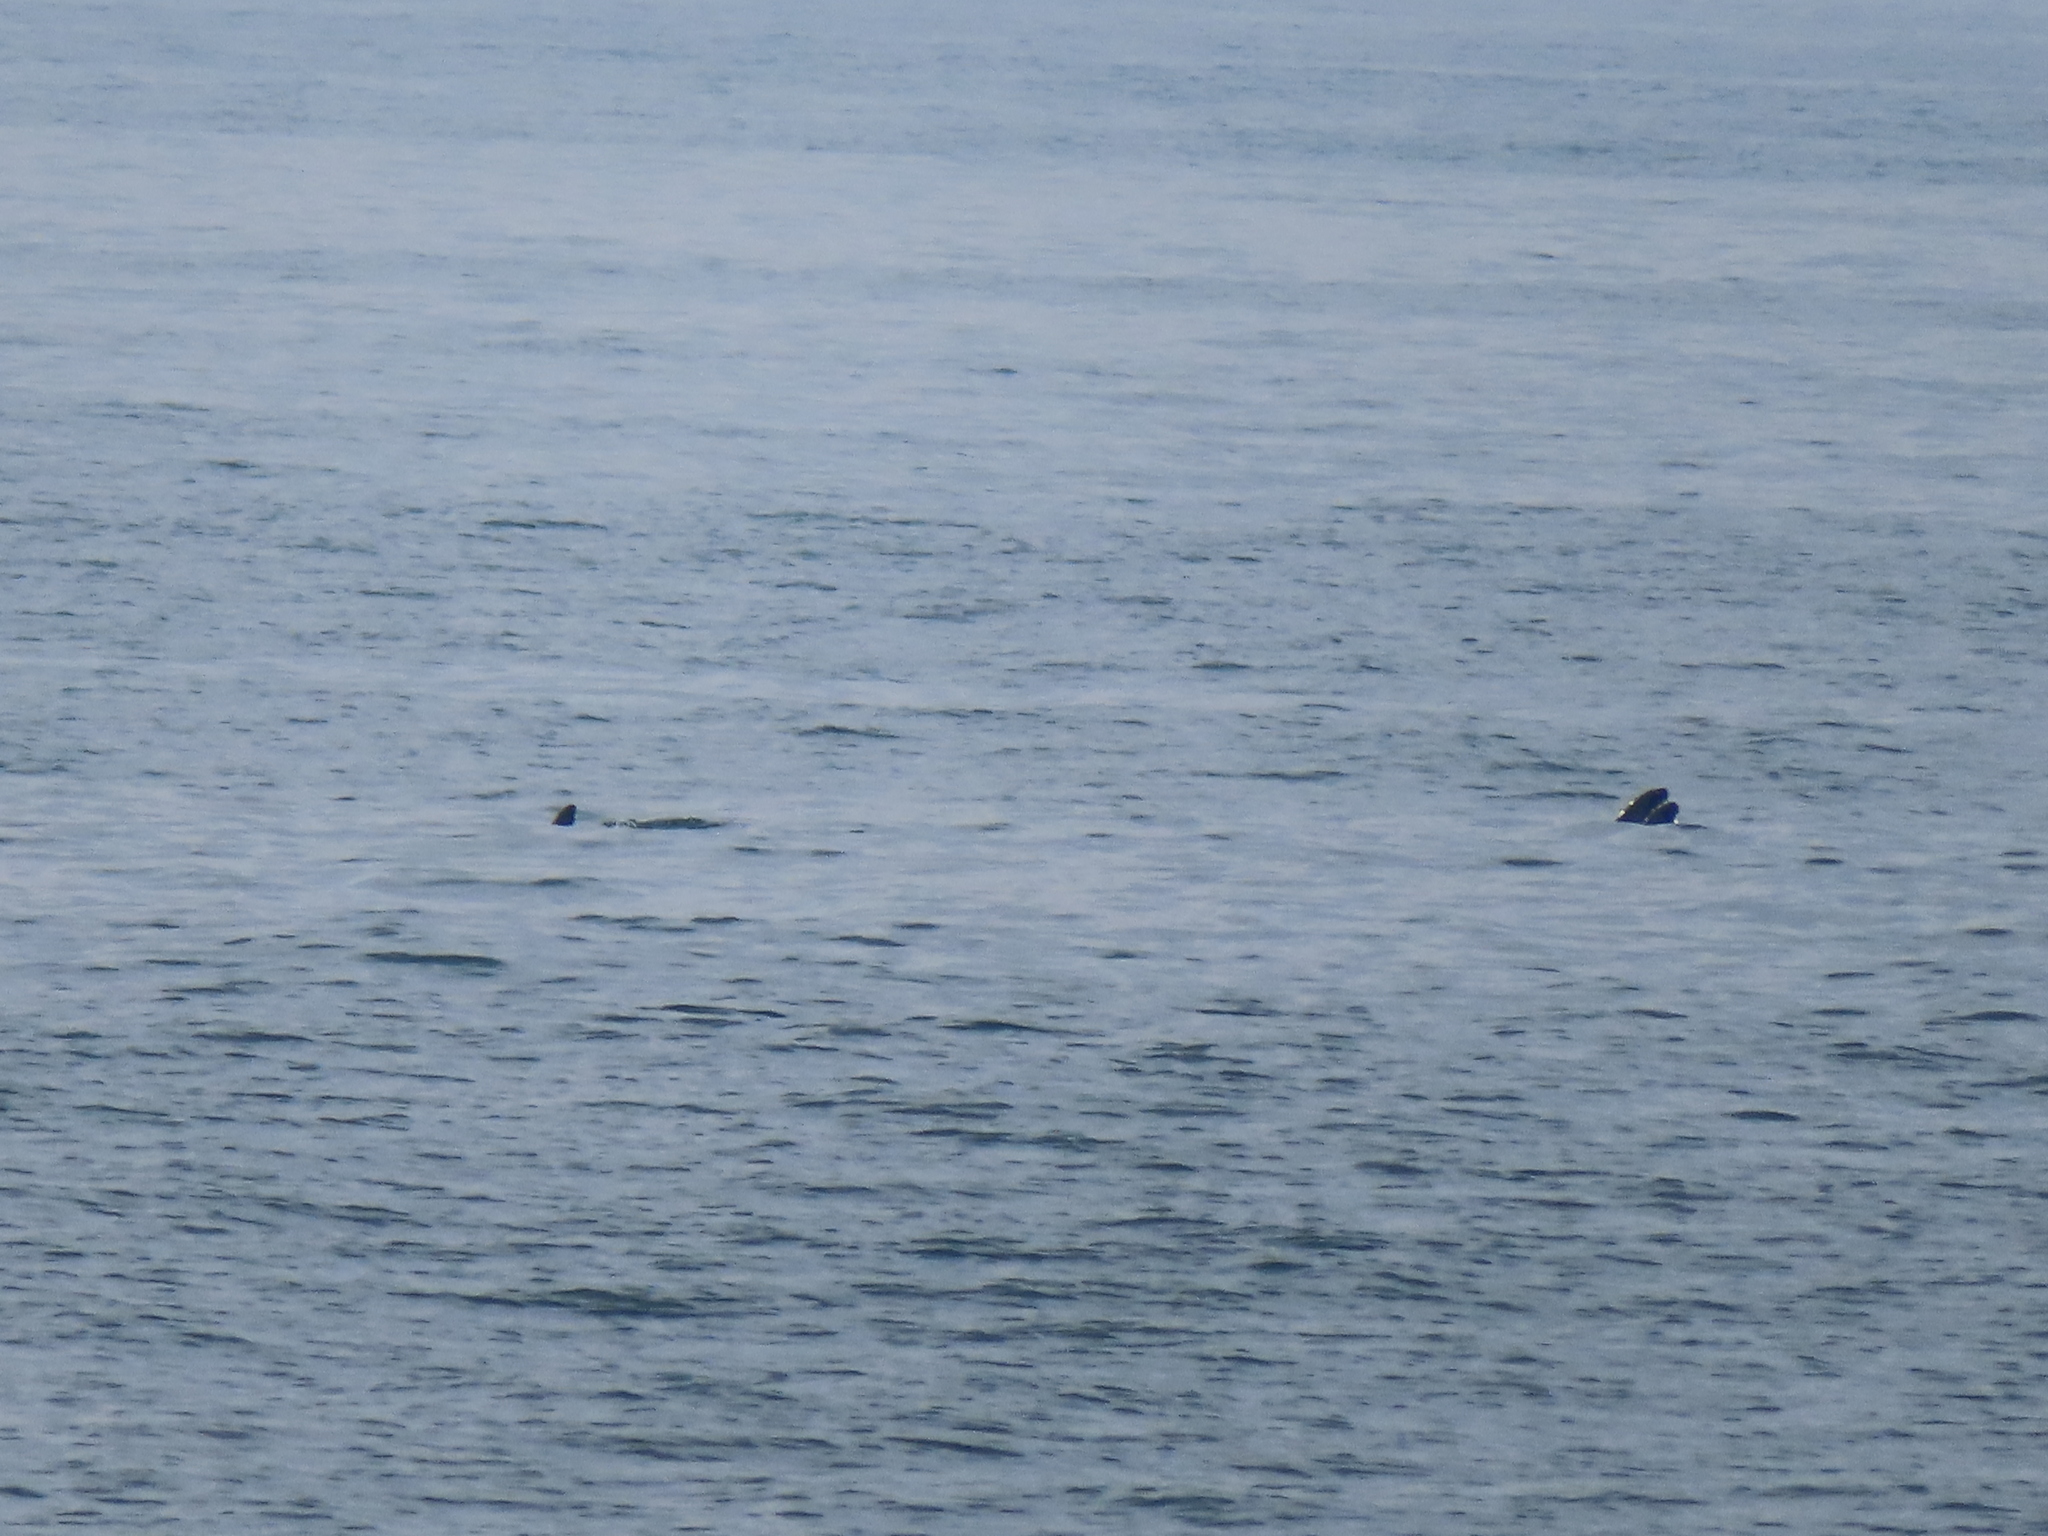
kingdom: Animalia
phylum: Chordata
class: Mammalia
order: Cetacea
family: Delphinidae
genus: Tursiops
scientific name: Tursiops truncatus
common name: Bottlenose dolphin
